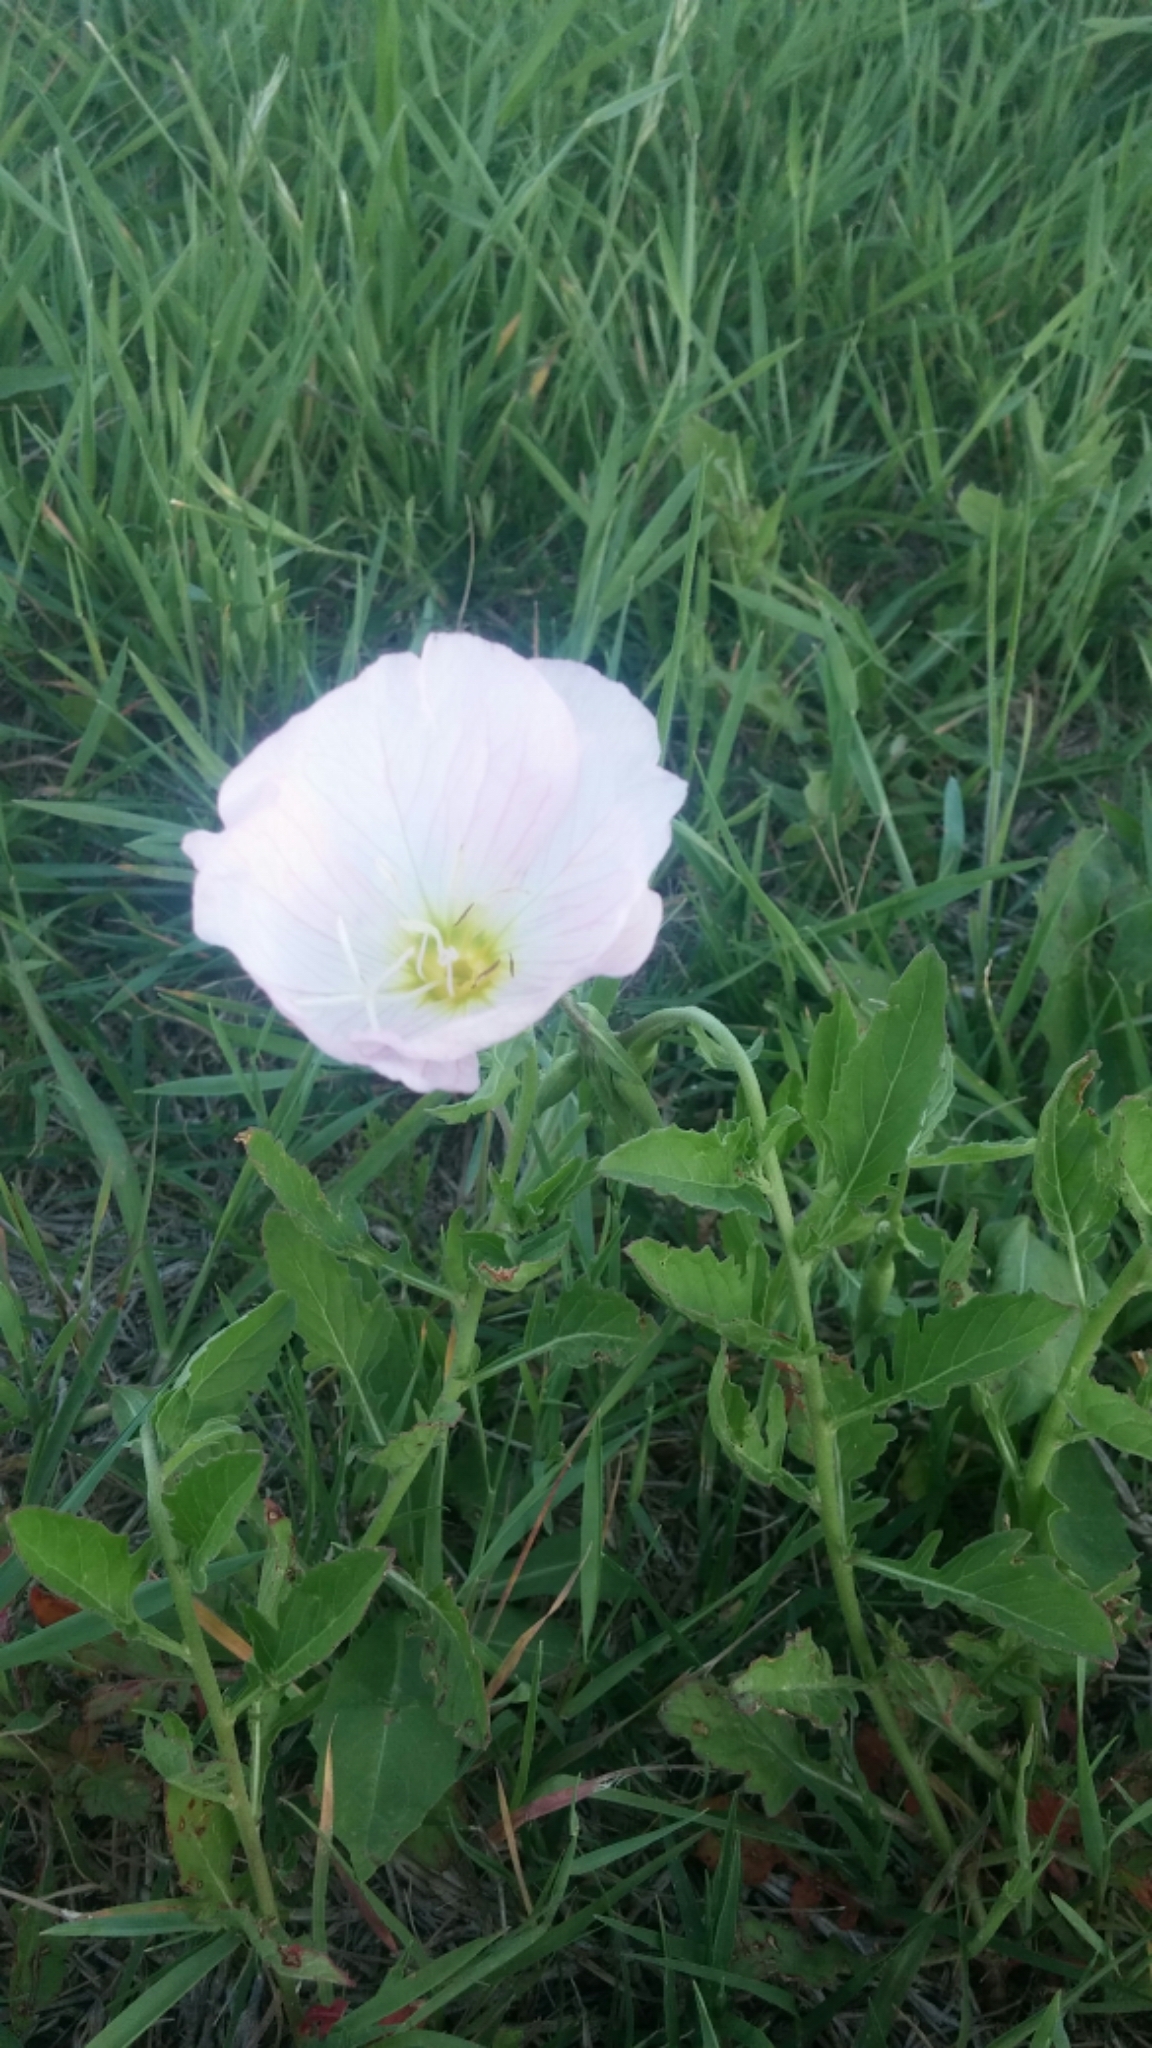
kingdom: Plantae
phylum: Tracheophyta
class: Magnoliopsida
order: Myrtales
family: Onagraceae
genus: Oenothera
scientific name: Oenothera speciosa
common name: White evening-primrose
